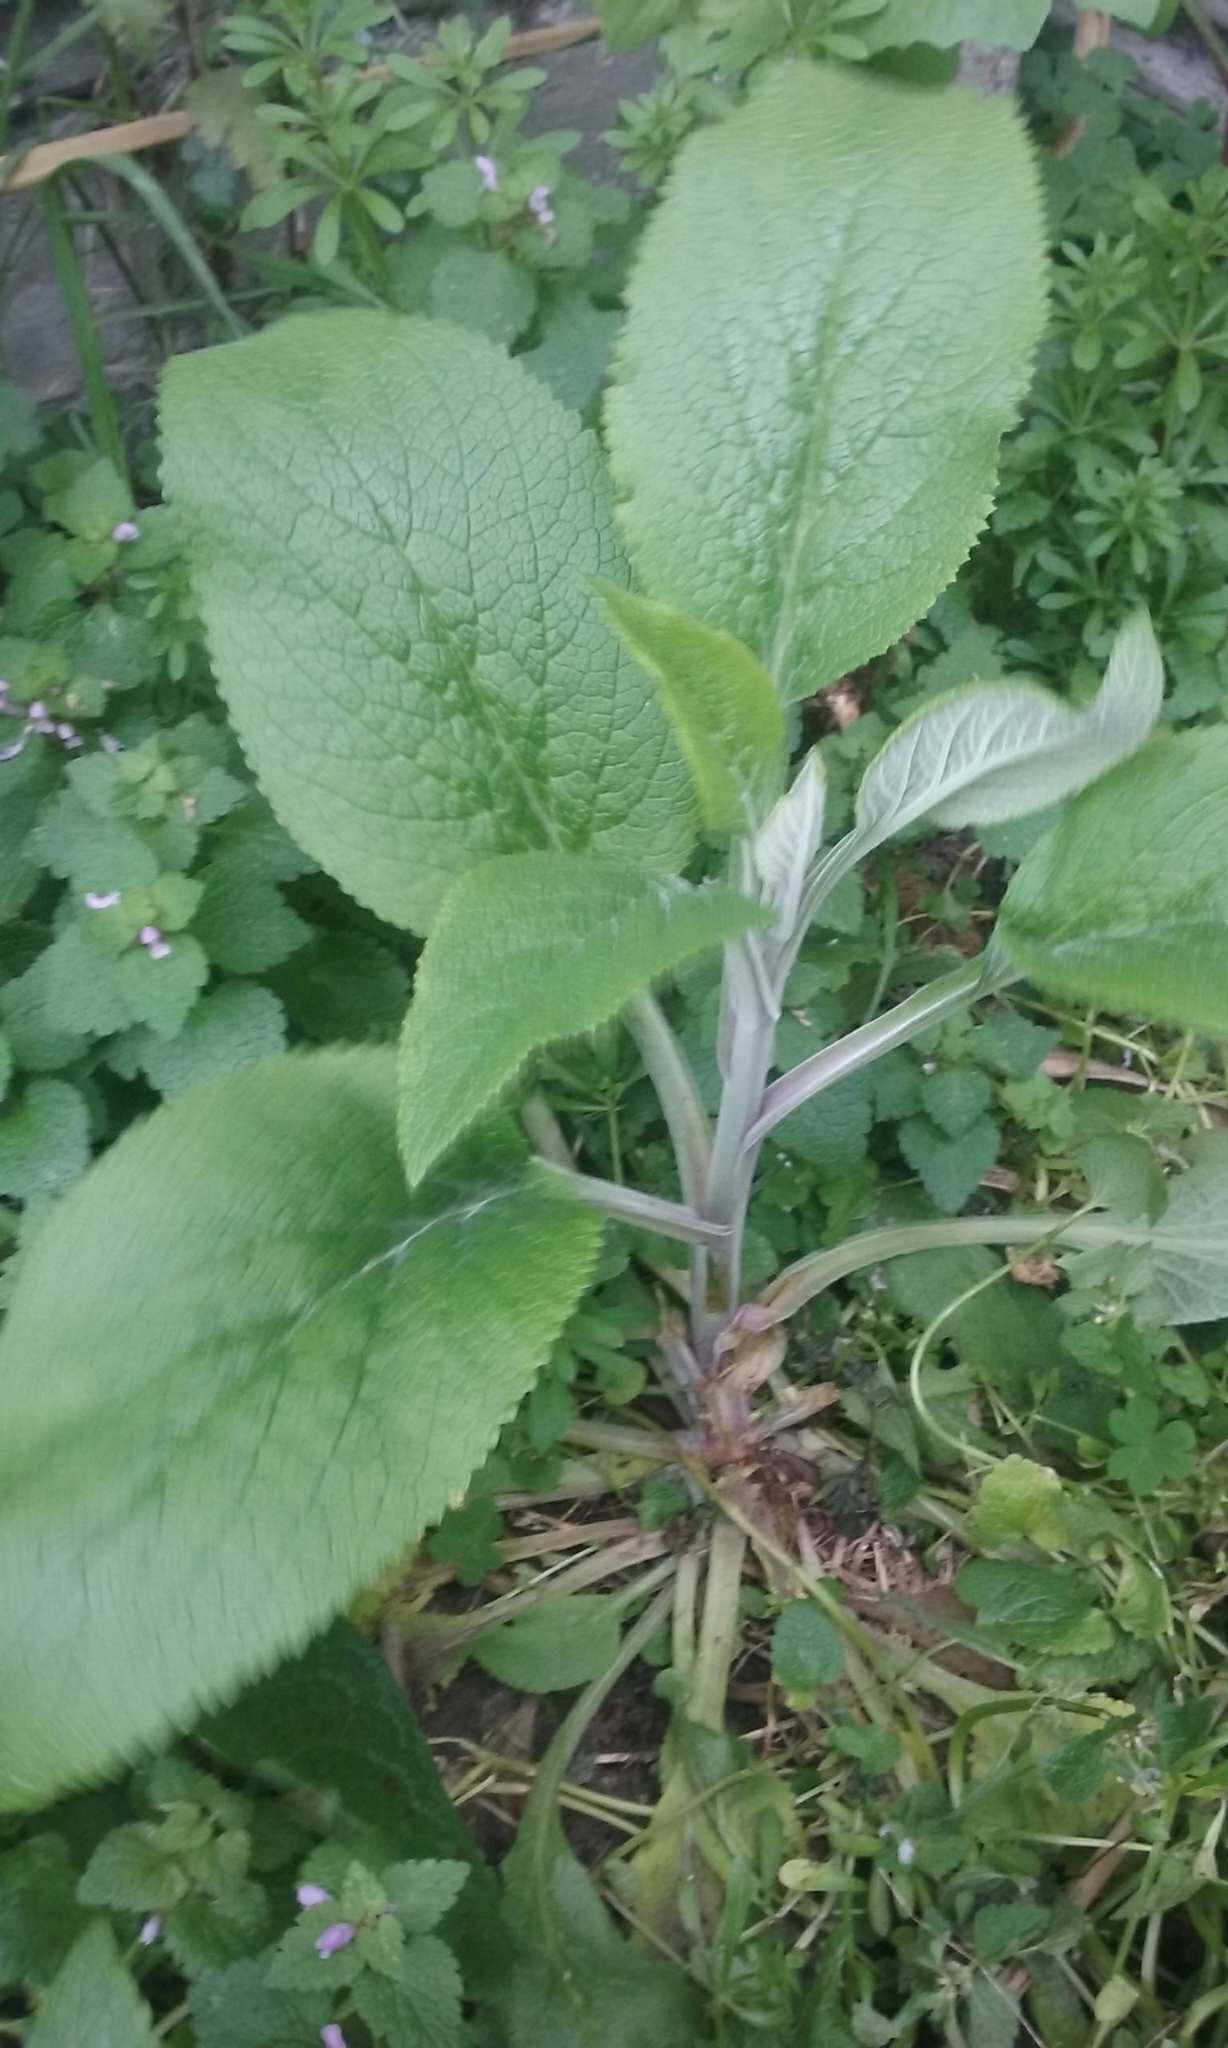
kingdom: Plantae
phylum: Tracheophyta
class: Magnoliopsida
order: Lamiales
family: Plantaginaceae
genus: Digitalis
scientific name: Digitalis purpurea
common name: Foxglove
